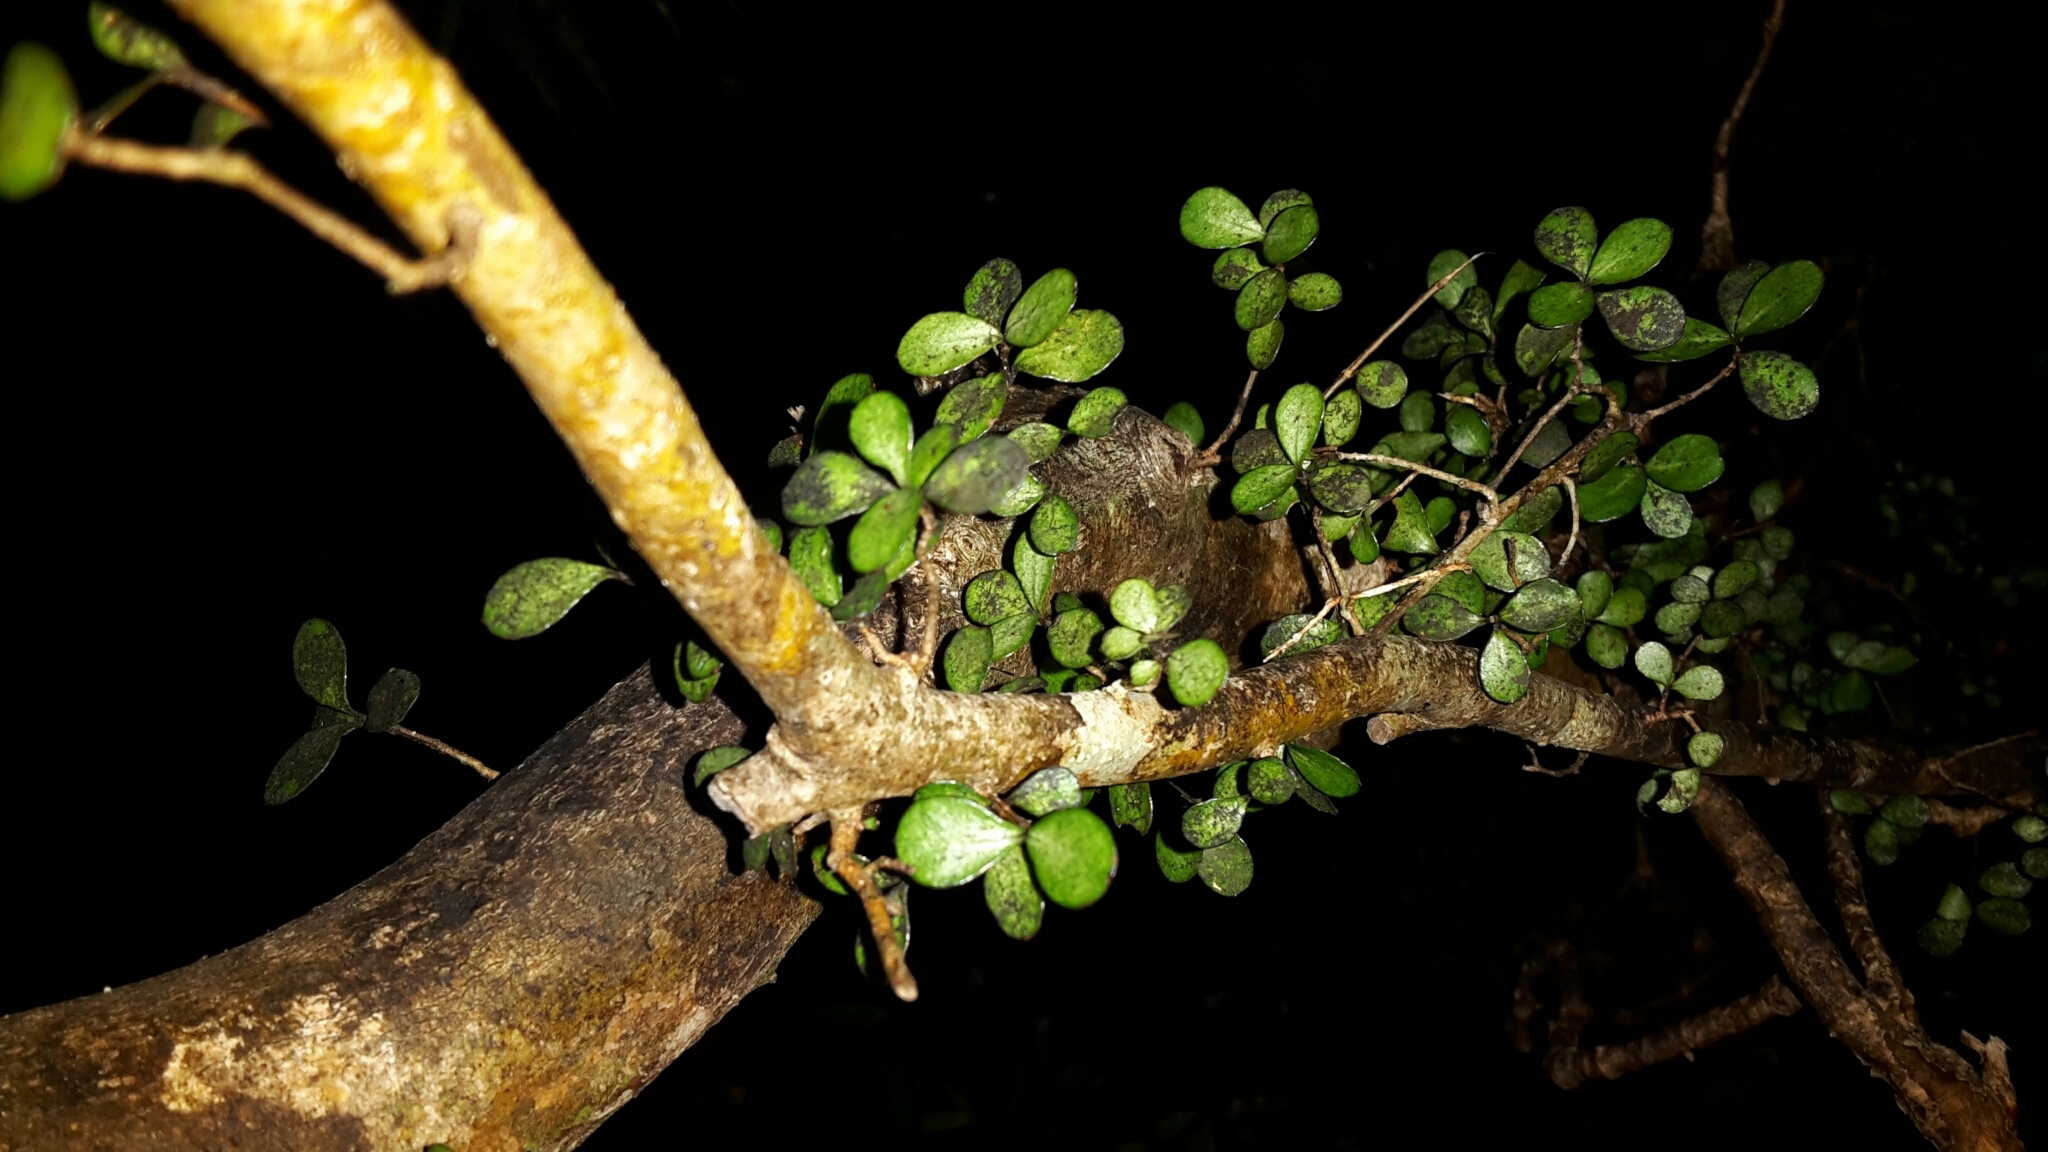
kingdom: Plantae
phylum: Tracheophyta
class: Magnoliopsida
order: Myrtales
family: Myrtaceae
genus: Neomyrtus
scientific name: Neomyrtus pedunculata
